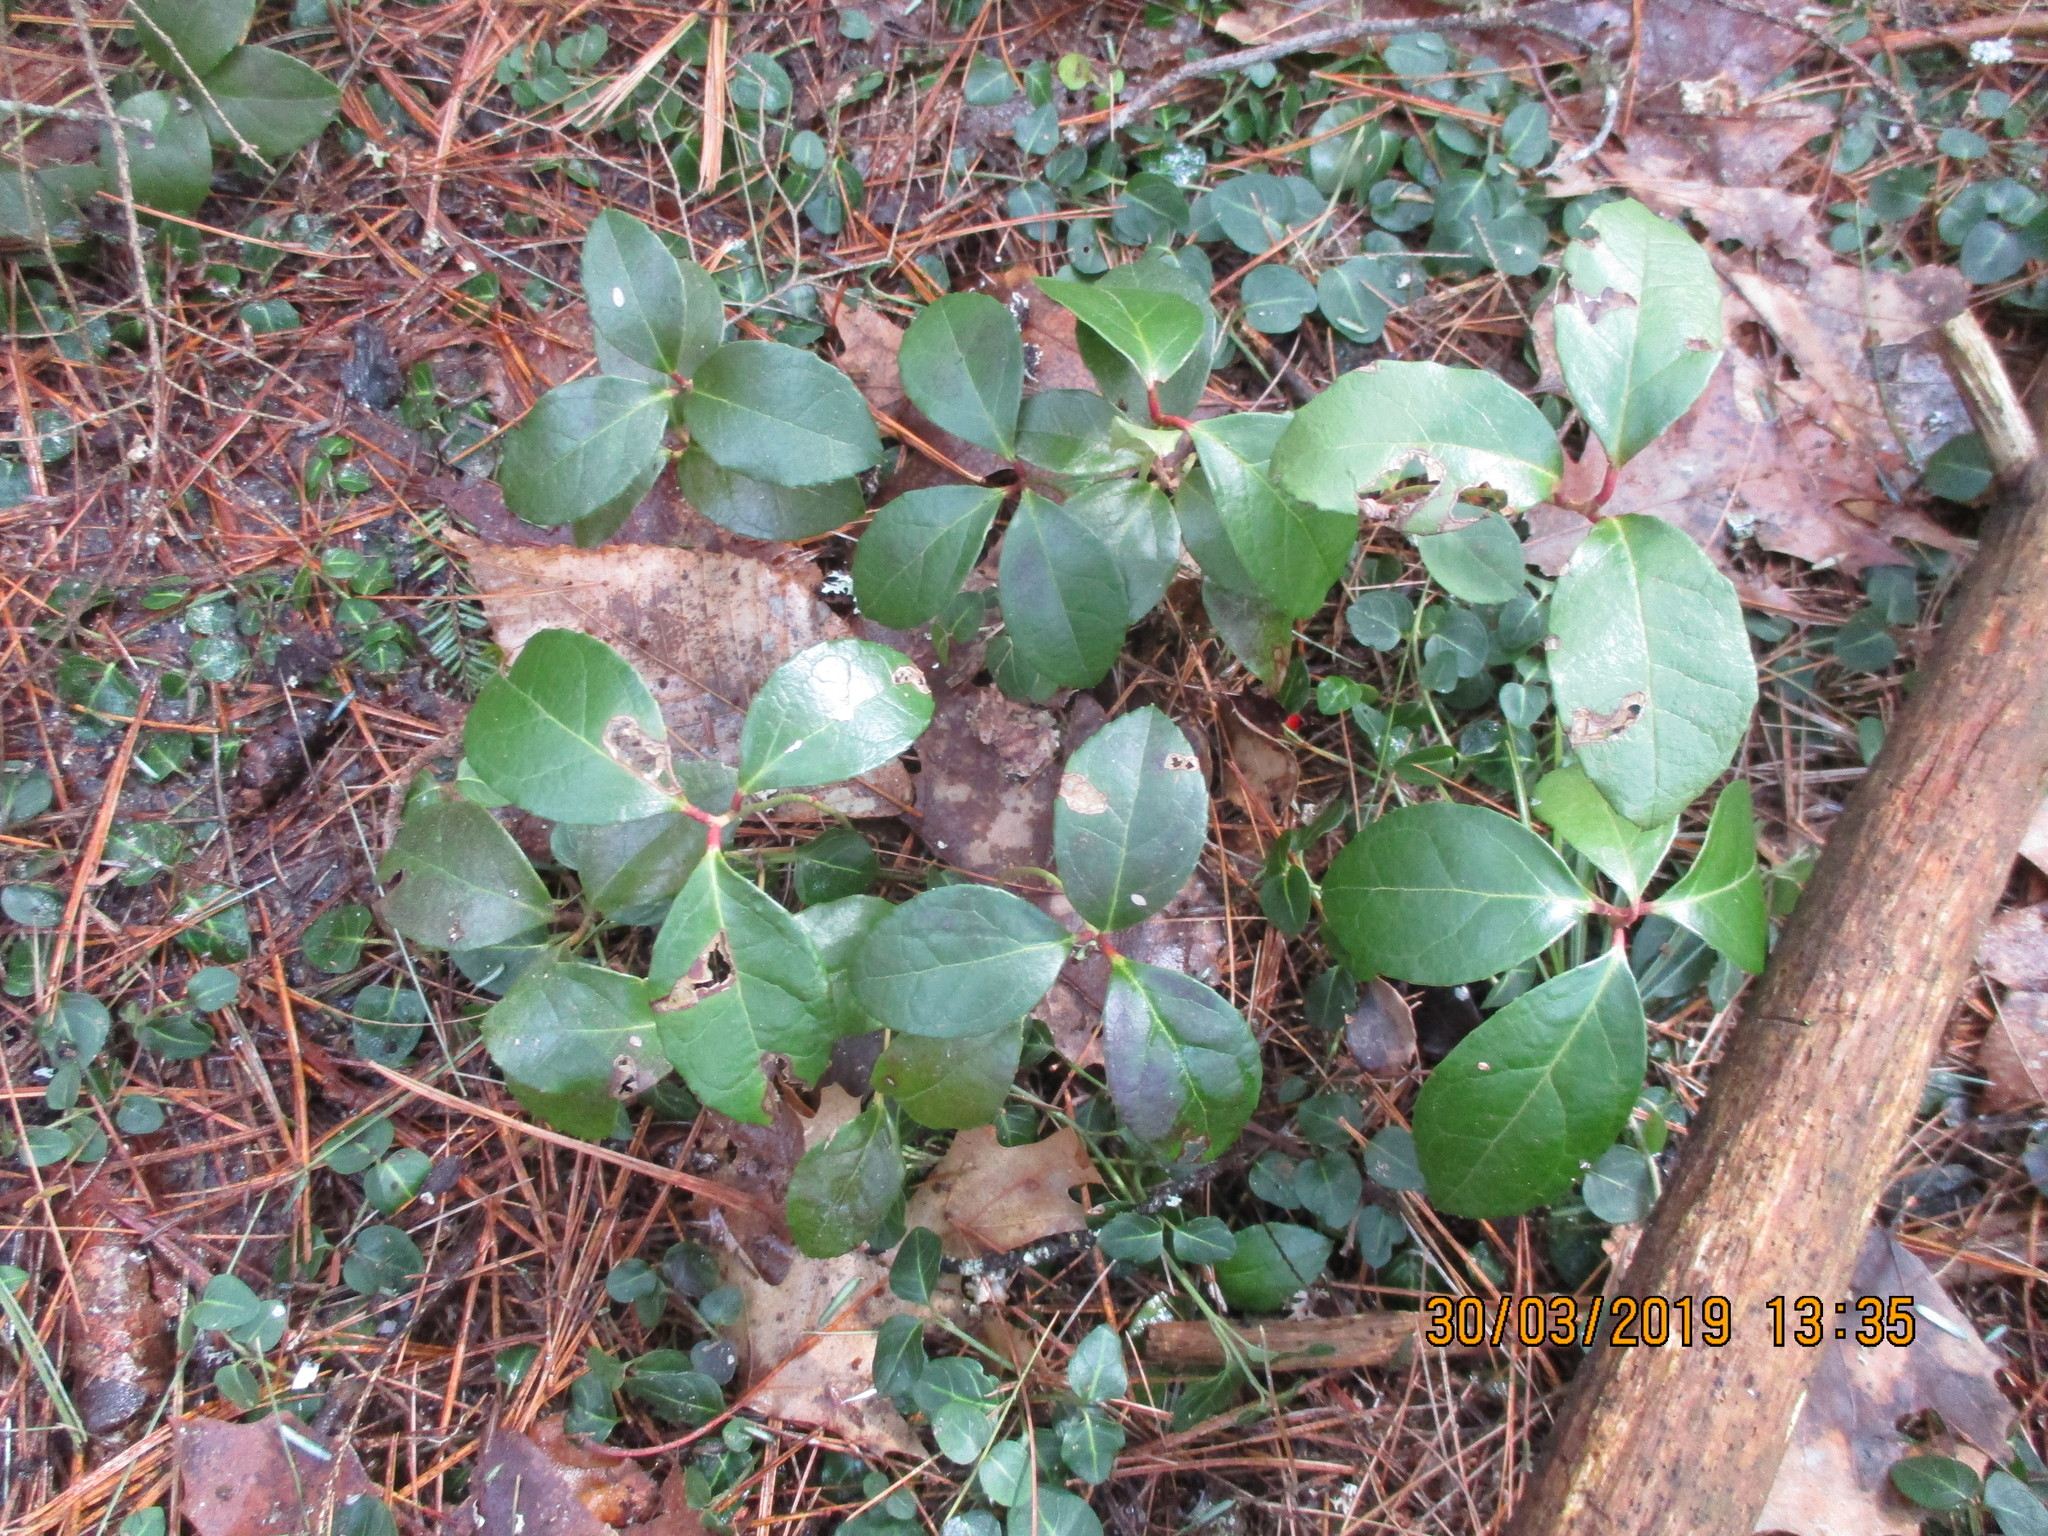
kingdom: Plantae
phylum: Tracheophyta
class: Magnoliopsida
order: Ericales
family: Ericaceae
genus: Gaultheria
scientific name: Gaultheria procumbens
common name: Checkerberry
